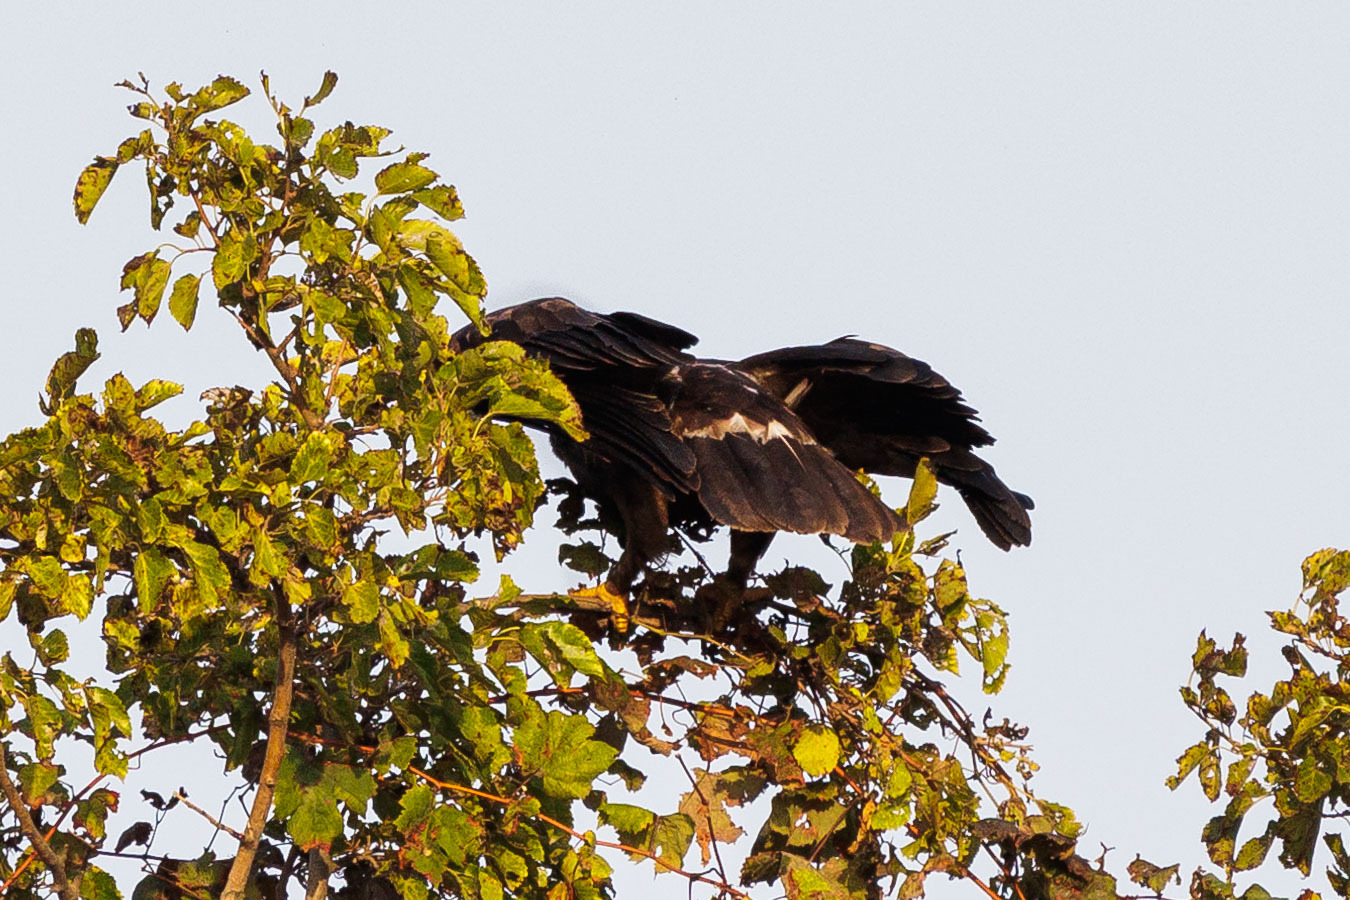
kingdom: Animalia
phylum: Chordata
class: Aves
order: Accipitriformes
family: Accipitridae
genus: Aquila
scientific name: Aquila pomarina
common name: Lesser spotted eagle
